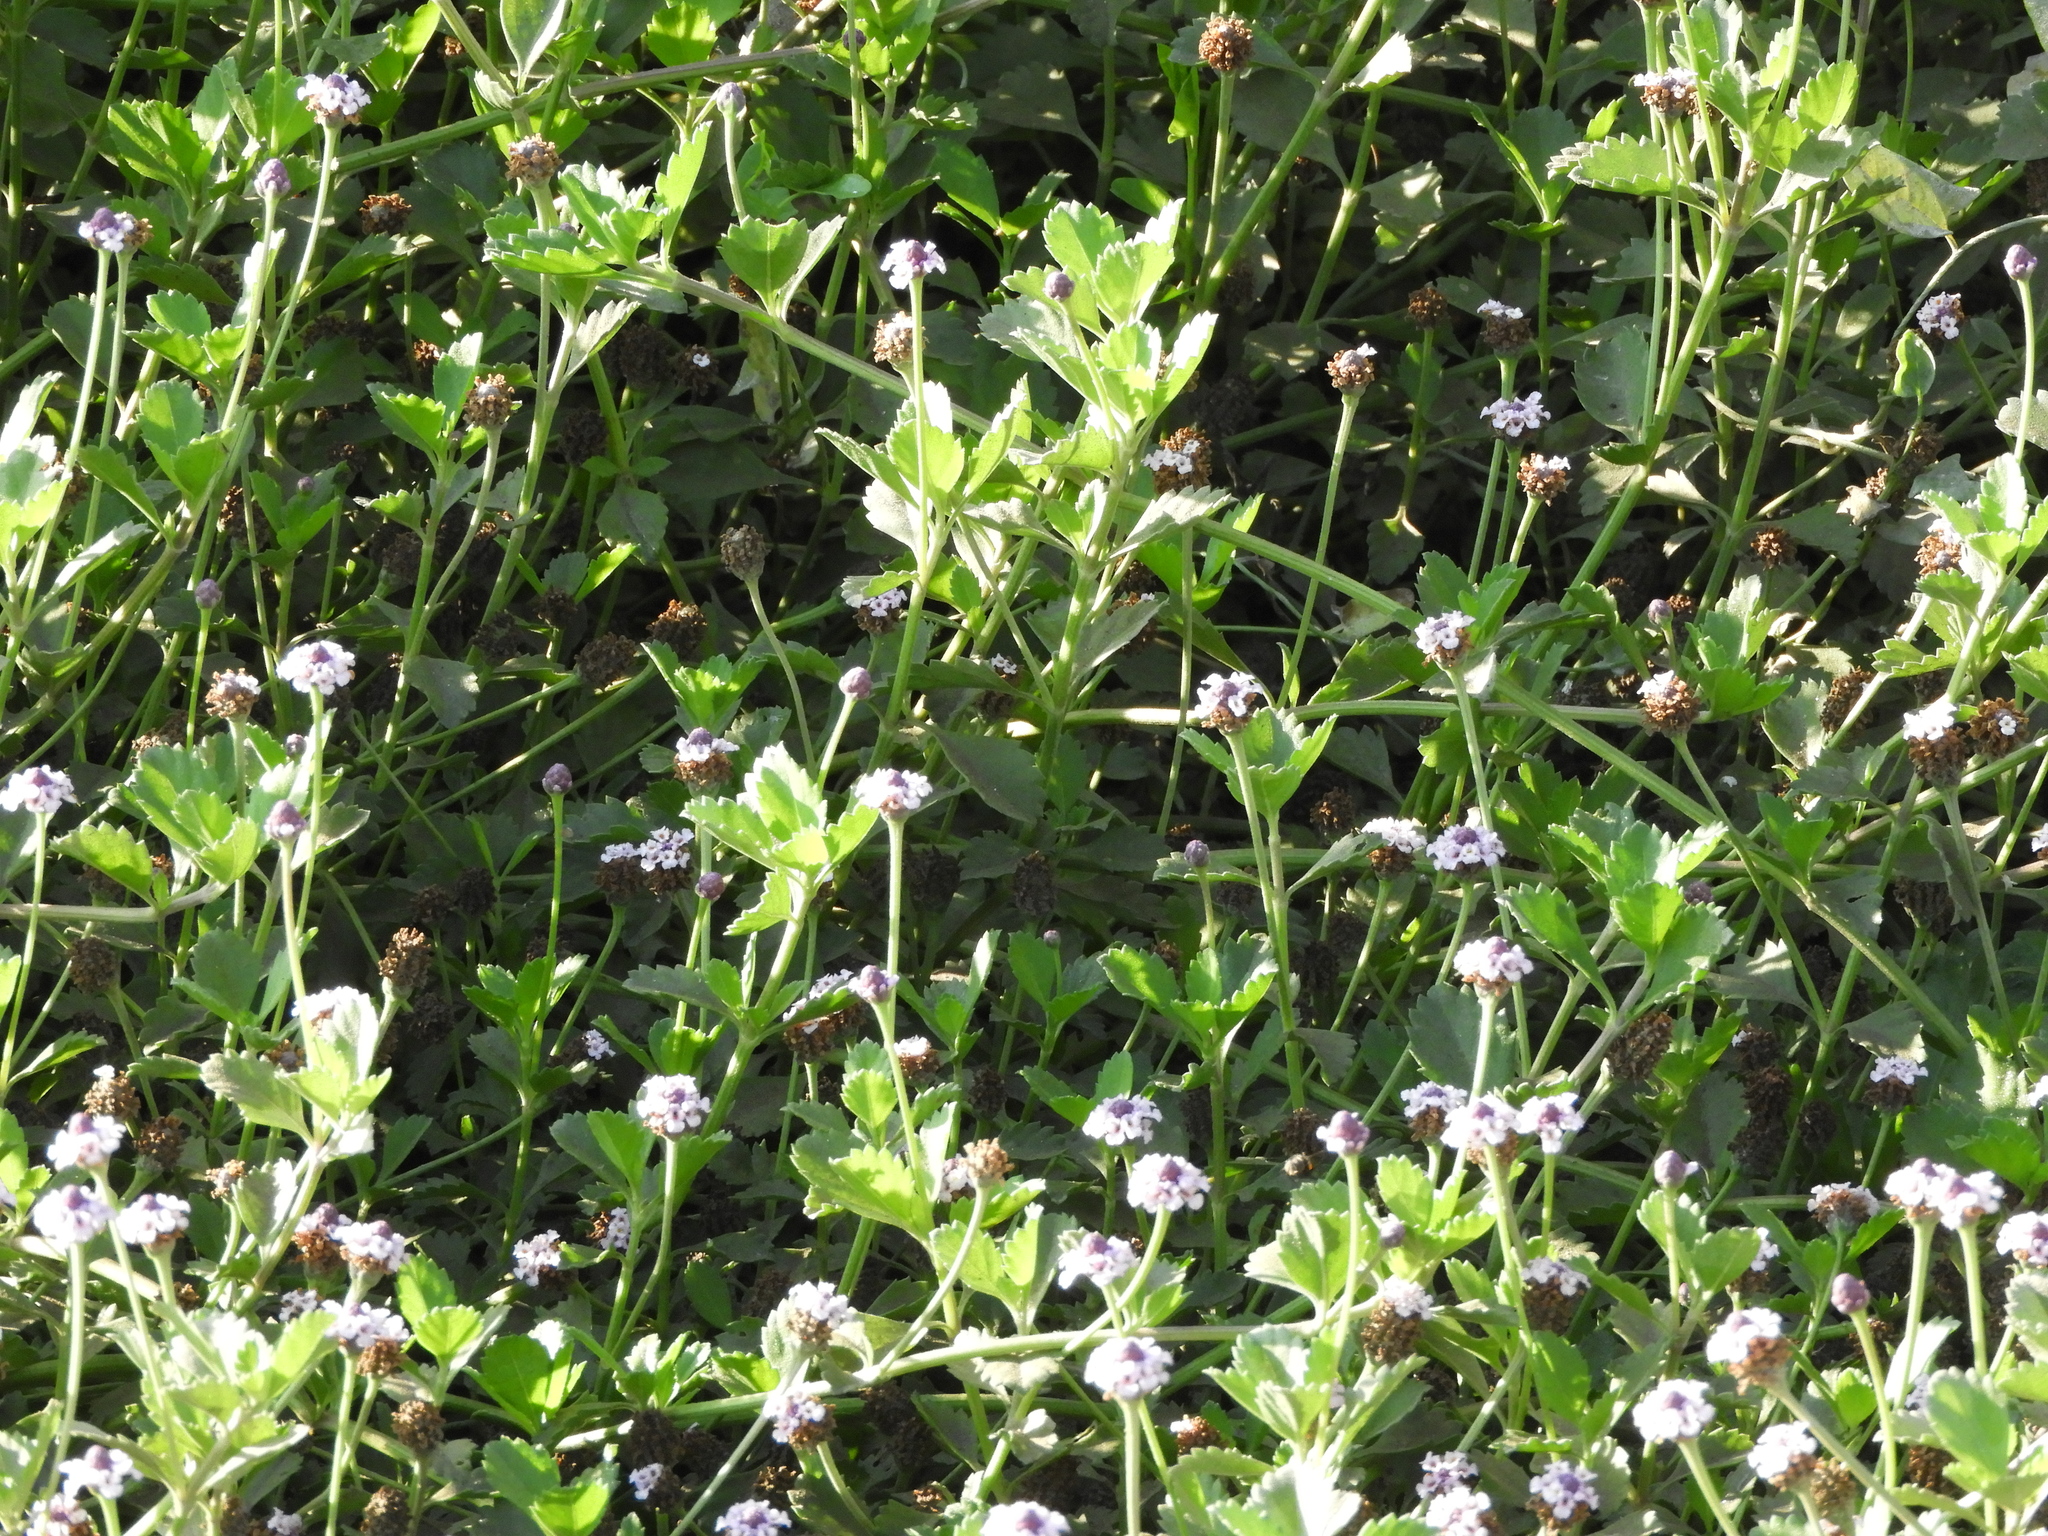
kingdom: Plantae
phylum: Tracheophyta
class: Magnoliopsida
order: Lamiales
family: Verbenaceae
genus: Phyla
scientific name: Phyla nodiflora
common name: Frogfruit
